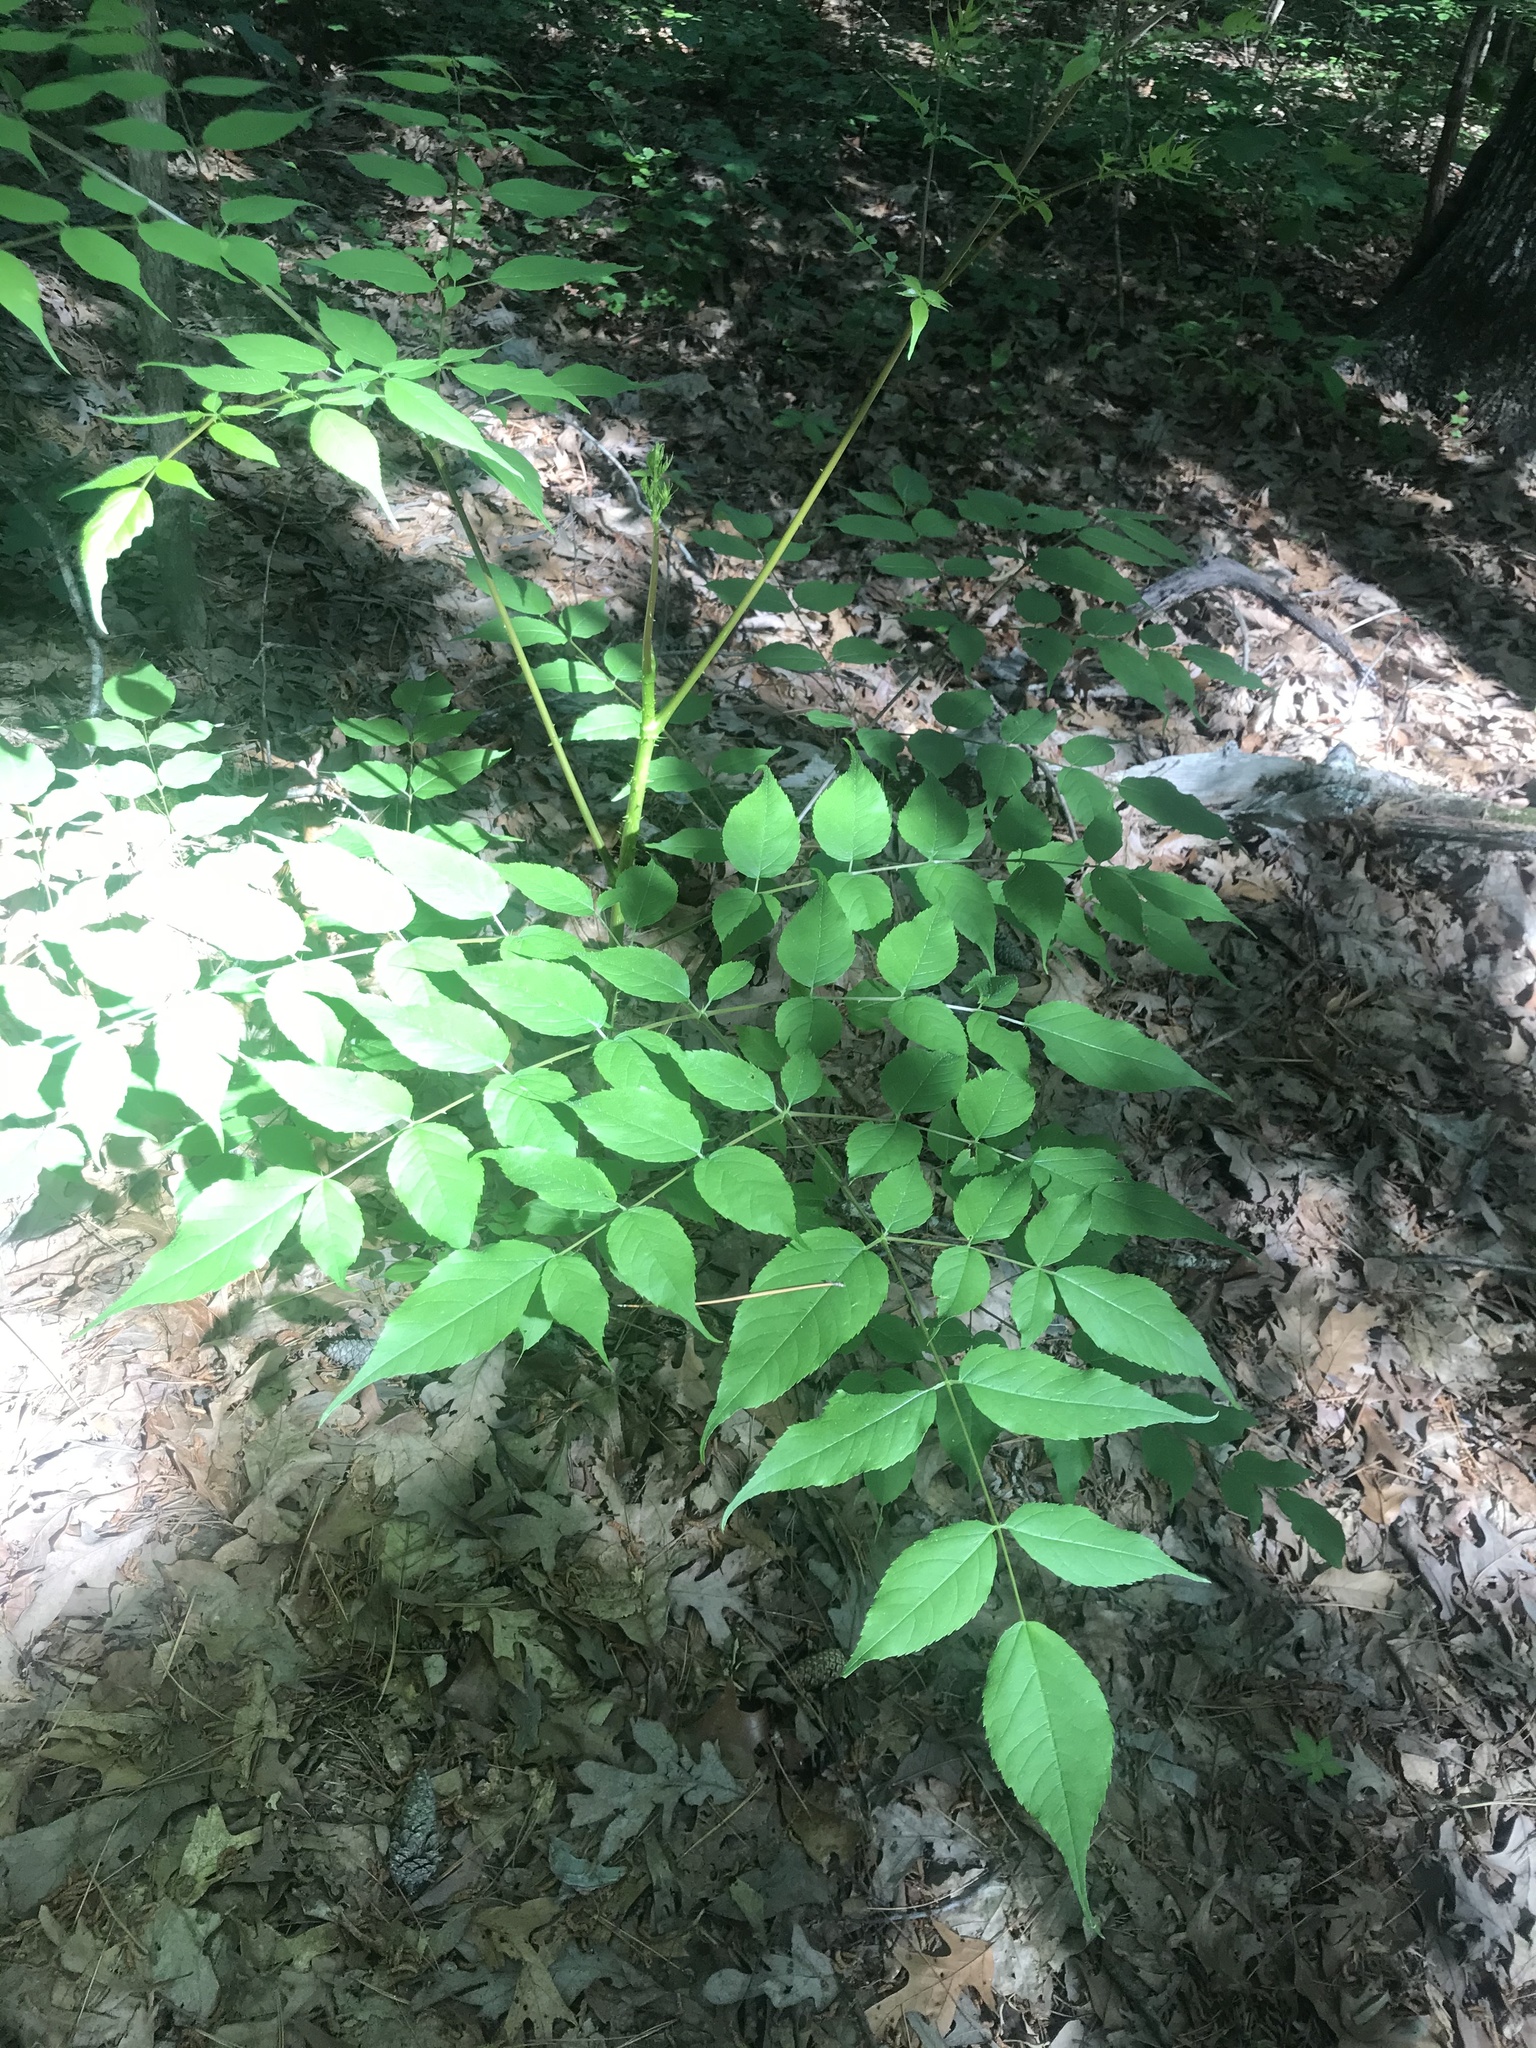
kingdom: Plantae
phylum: Tracheophyta
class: Magnoliopsida
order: Apiales
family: Araliaceae
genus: Aralia
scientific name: Aralia spinosa
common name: Hercules'-club
